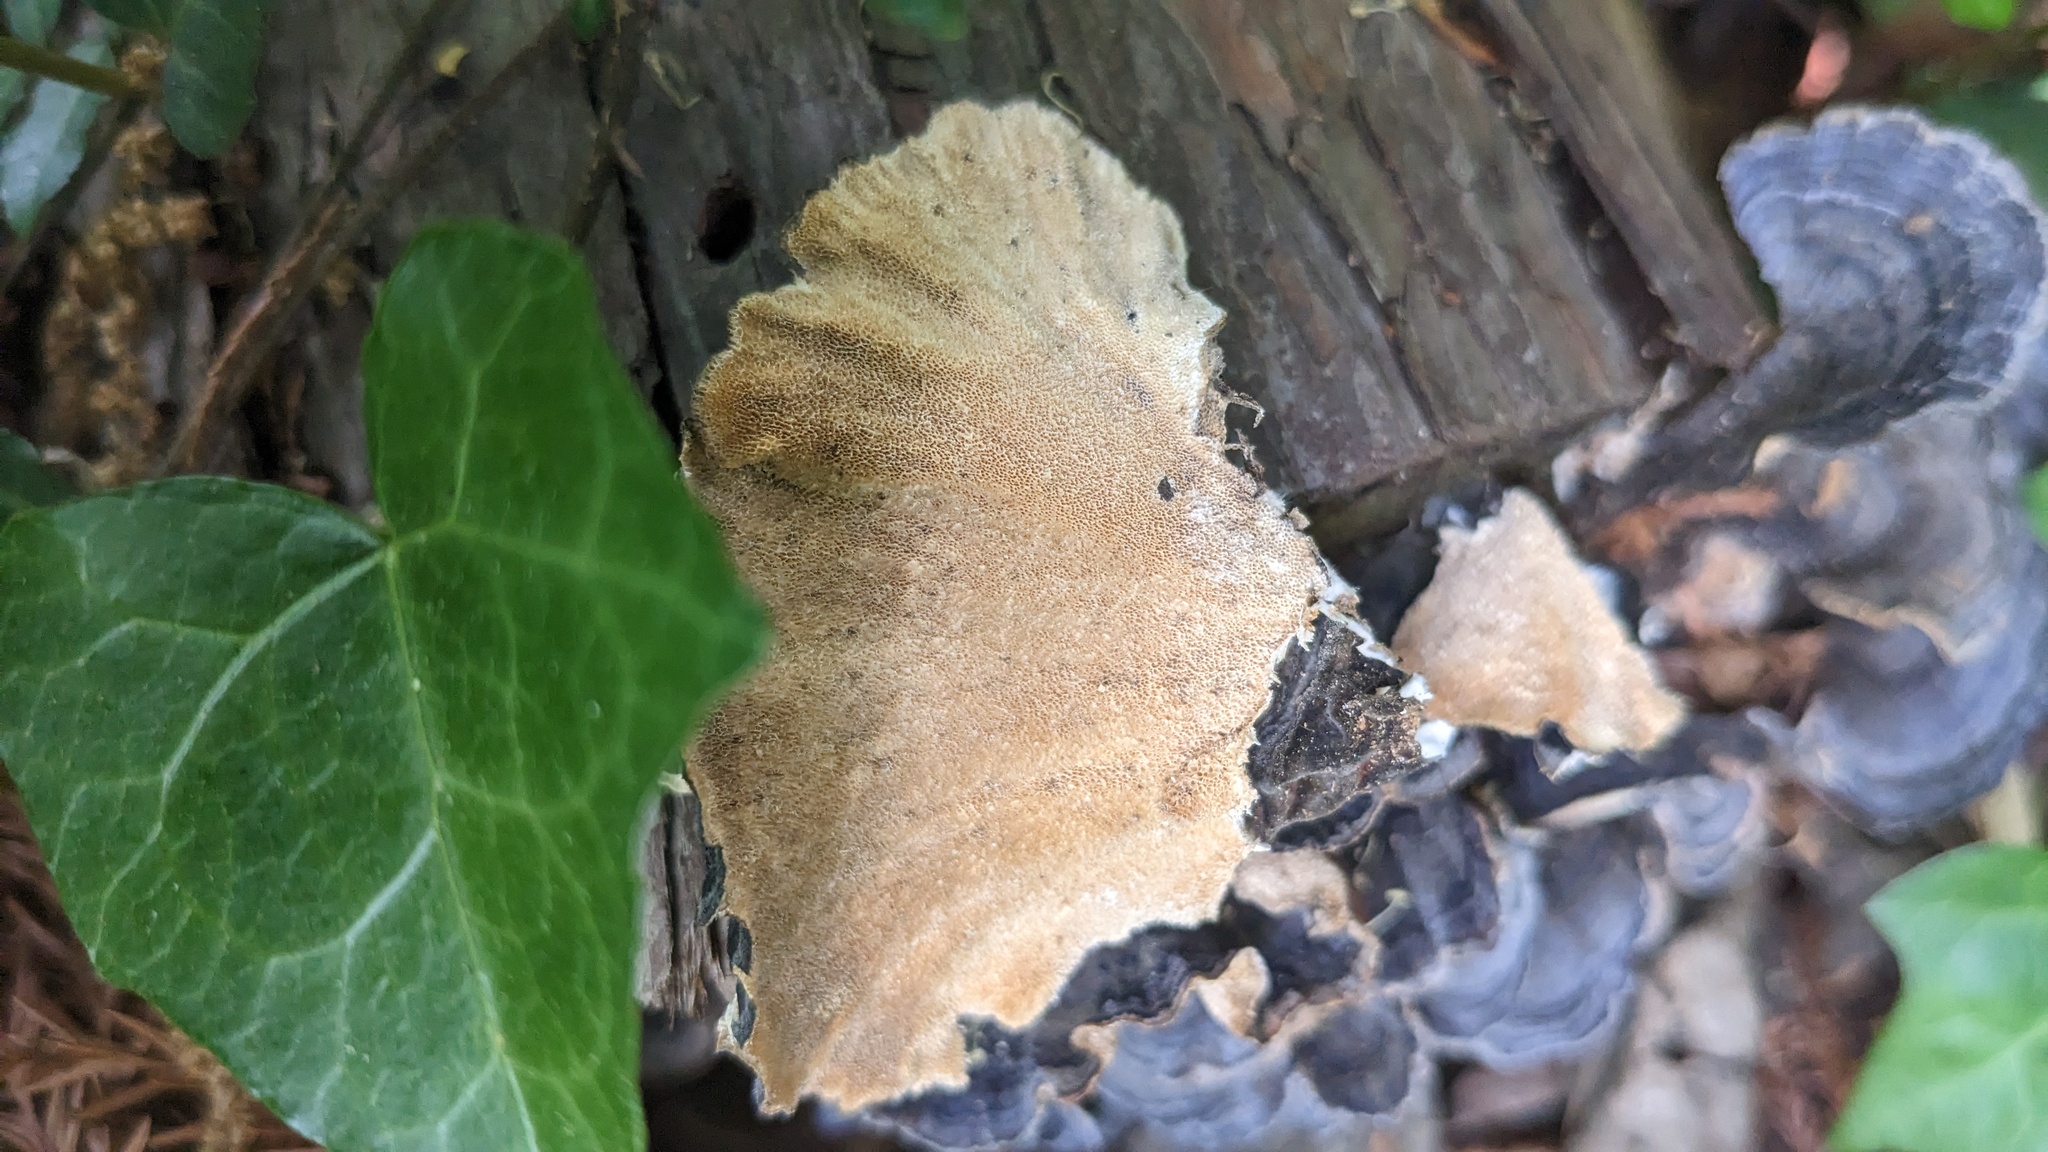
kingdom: Fungi
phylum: Basidiomycota
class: Agaricomycetes
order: Polyporales
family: Polyporaceae
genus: Trametes
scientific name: Trametes versicolor
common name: Turkeytail
